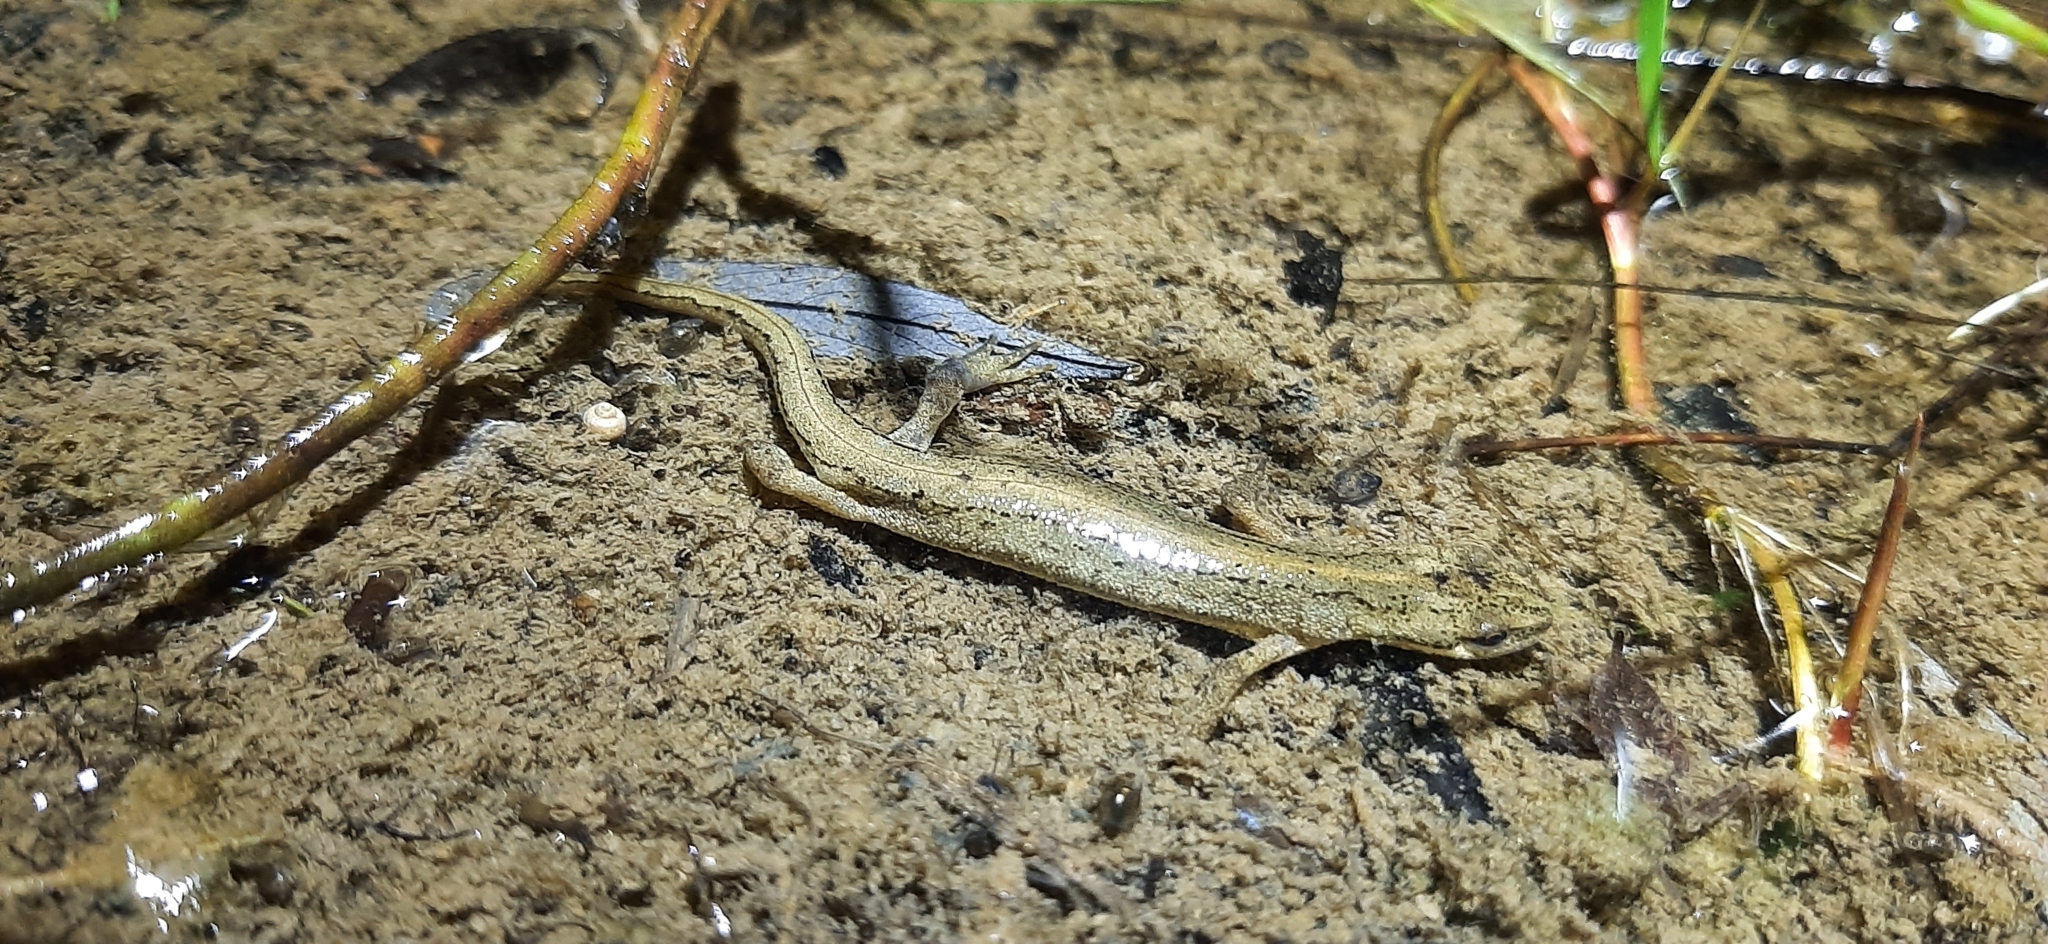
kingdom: Animalia
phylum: Chordata
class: Amphibia
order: Caudata
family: Salamandridae
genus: Lissotriton
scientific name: Lissotriton vulgaris
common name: Smooth newt
